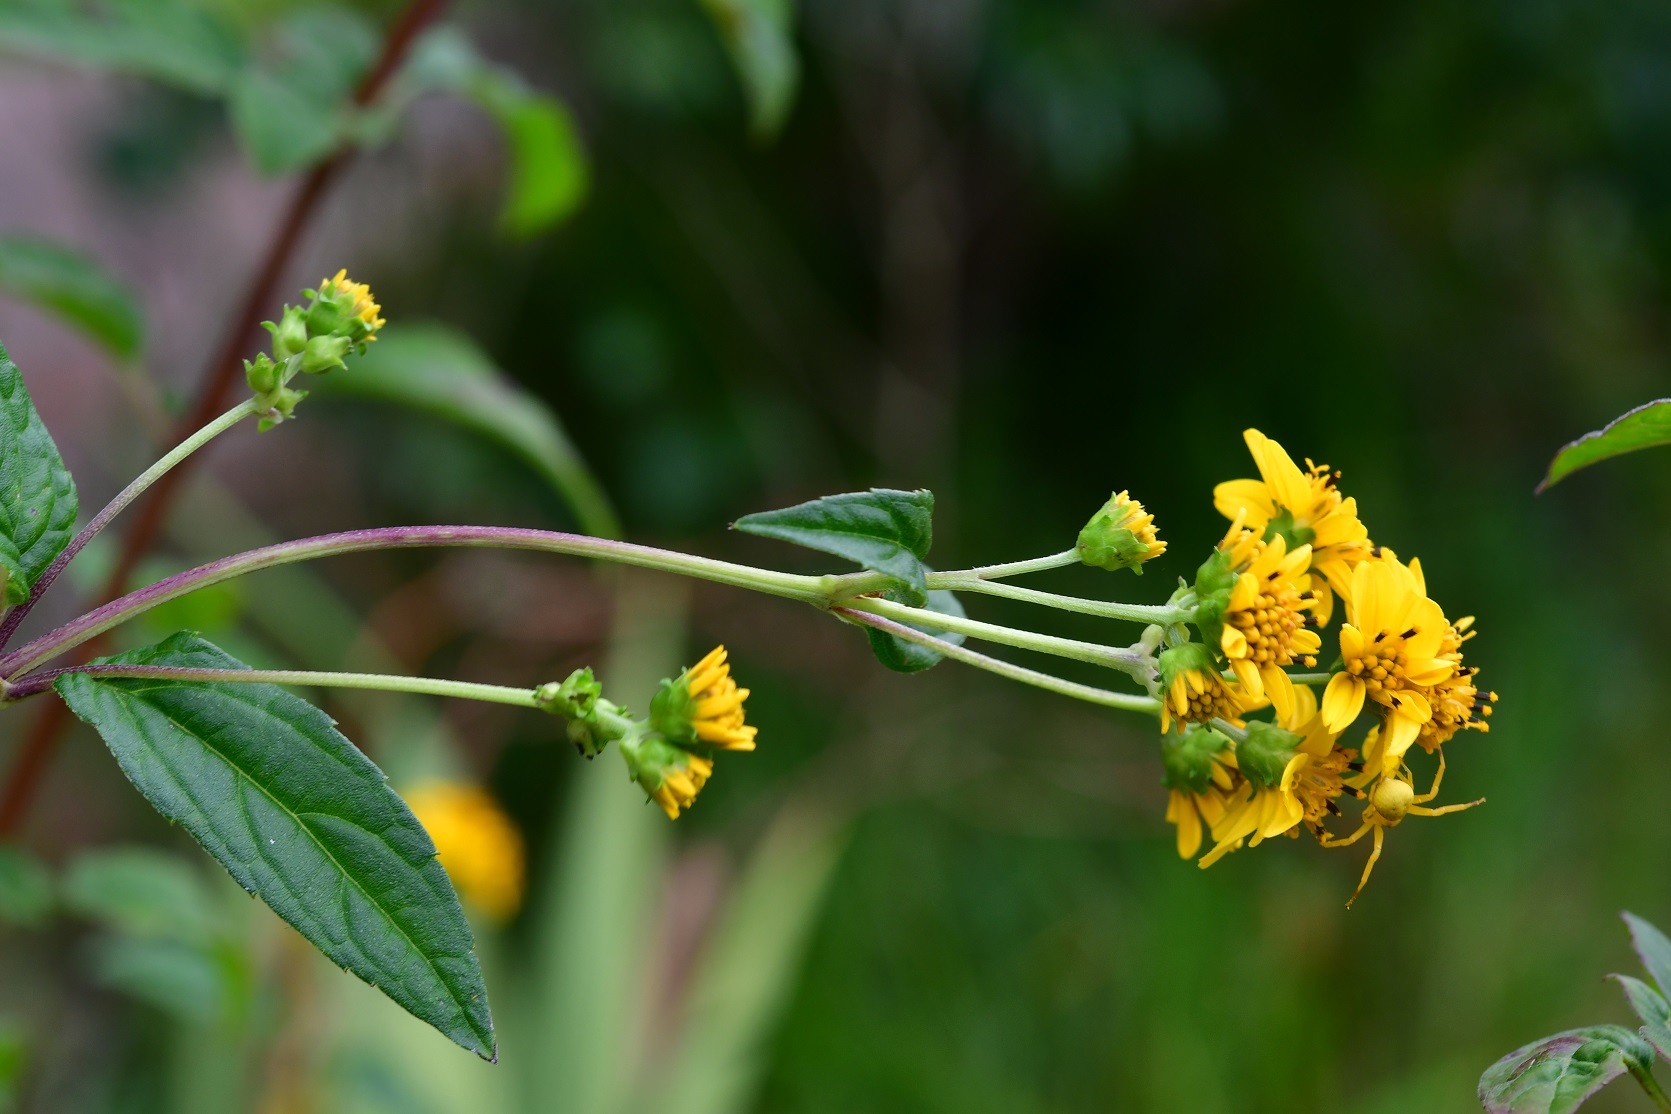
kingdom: Plantae
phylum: Tracheophyta
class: Magnoliopsida
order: Asterales
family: Asteraceae
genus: Perymenium
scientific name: Perymenium ghiesbreghtii
